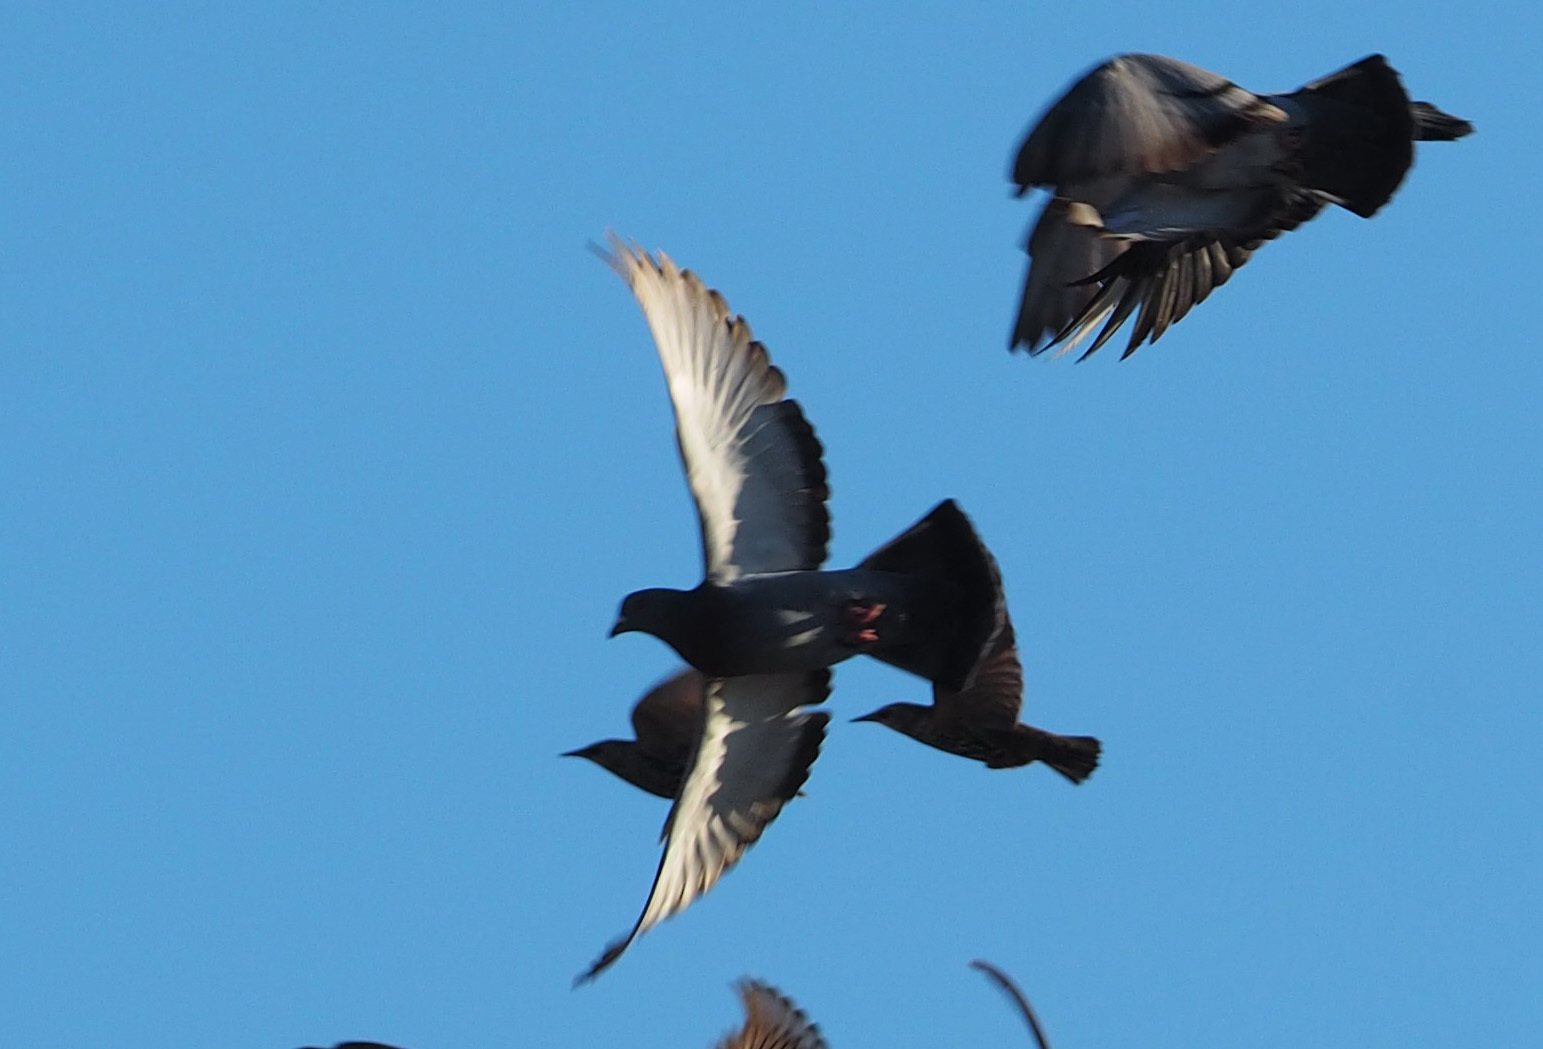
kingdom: Animalia
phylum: Chordata
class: Aves
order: Columbiformes
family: Columbidae
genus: Columba
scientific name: Columba livia
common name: Rock pigeon
